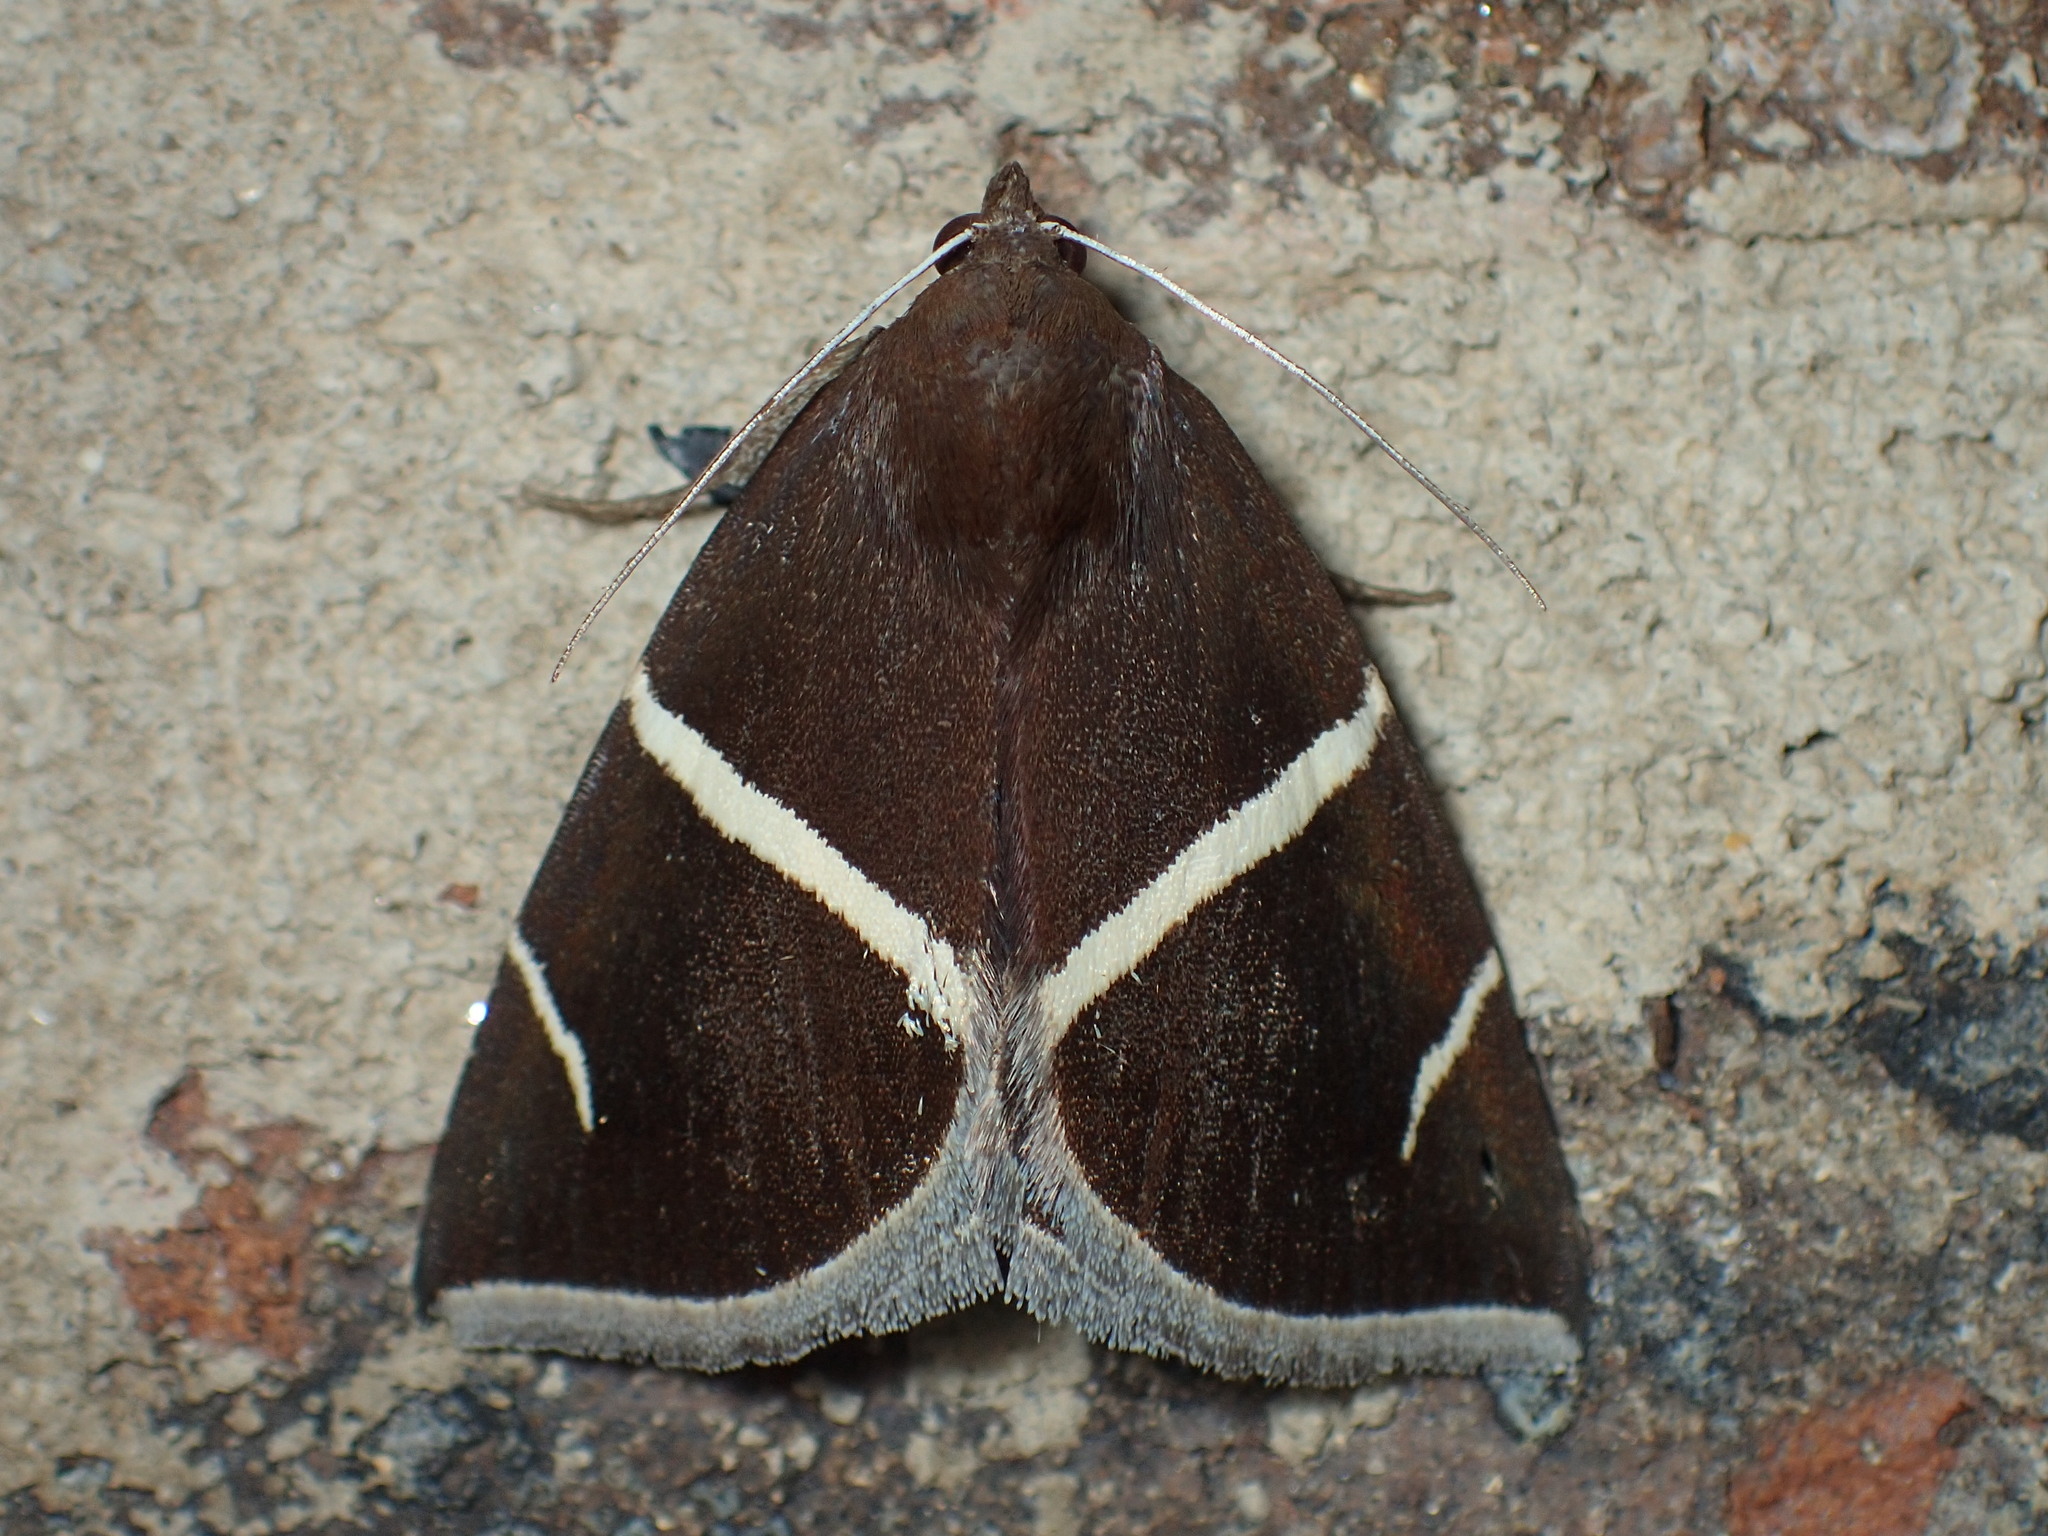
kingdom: Animalia
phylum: Arthropoda
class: Insecta
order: Lepidoptera
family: Erebidae
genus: Argyrostrotis
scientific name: Argyrostrotis anilis
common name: Short-lined chocolate
